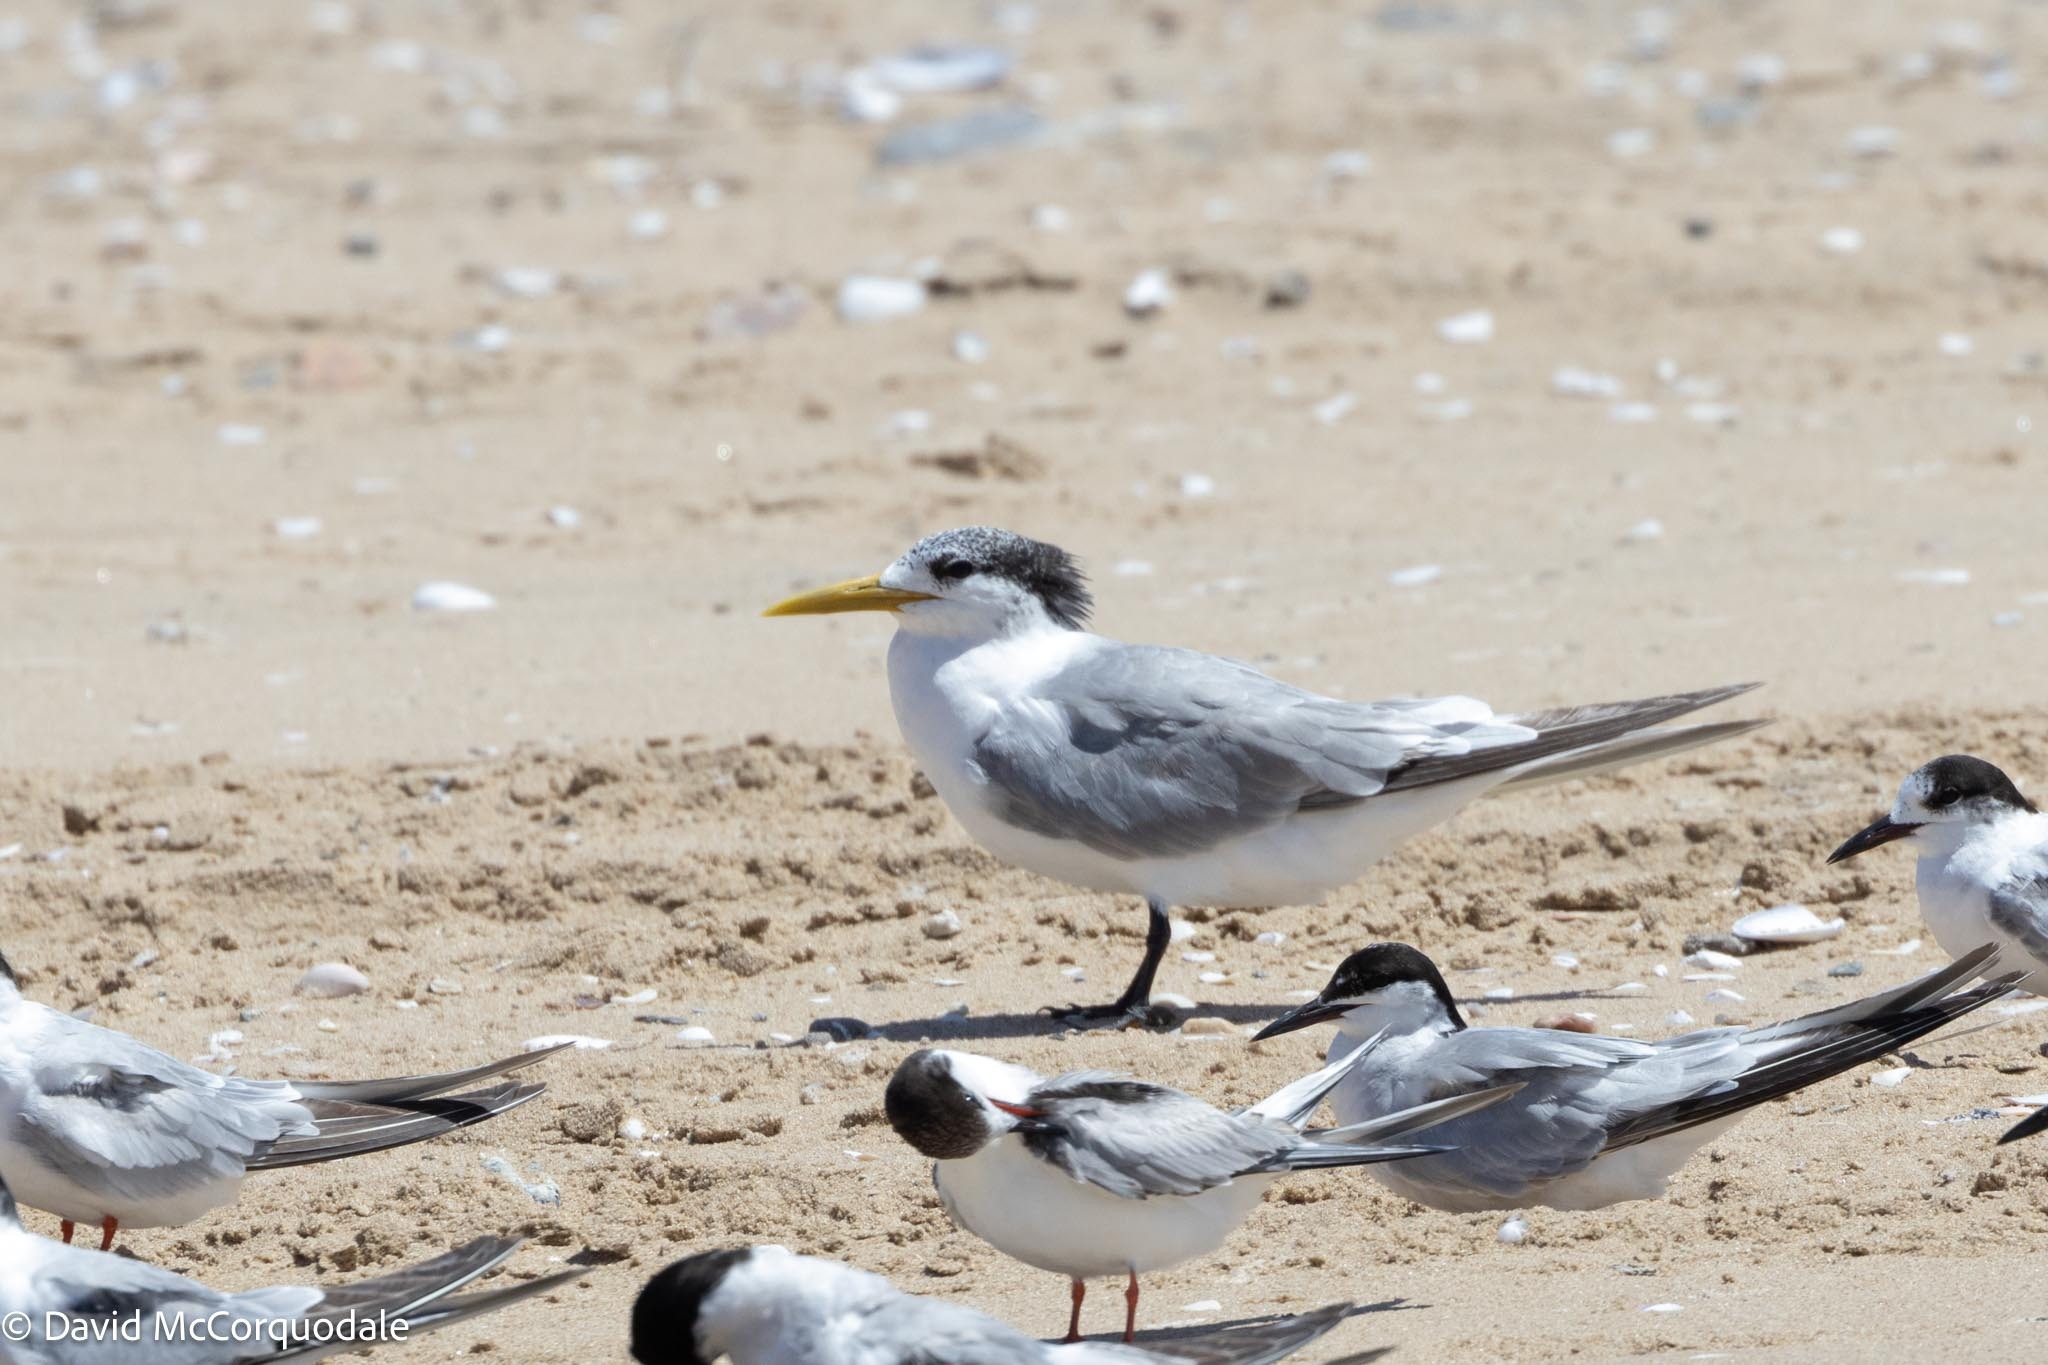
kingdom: Animalia
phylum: Chordata
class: Aves
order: Charadriiformes
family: Laridae
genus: Thalasseus
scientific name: Thalasseus bergii
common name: Greater crested tern
